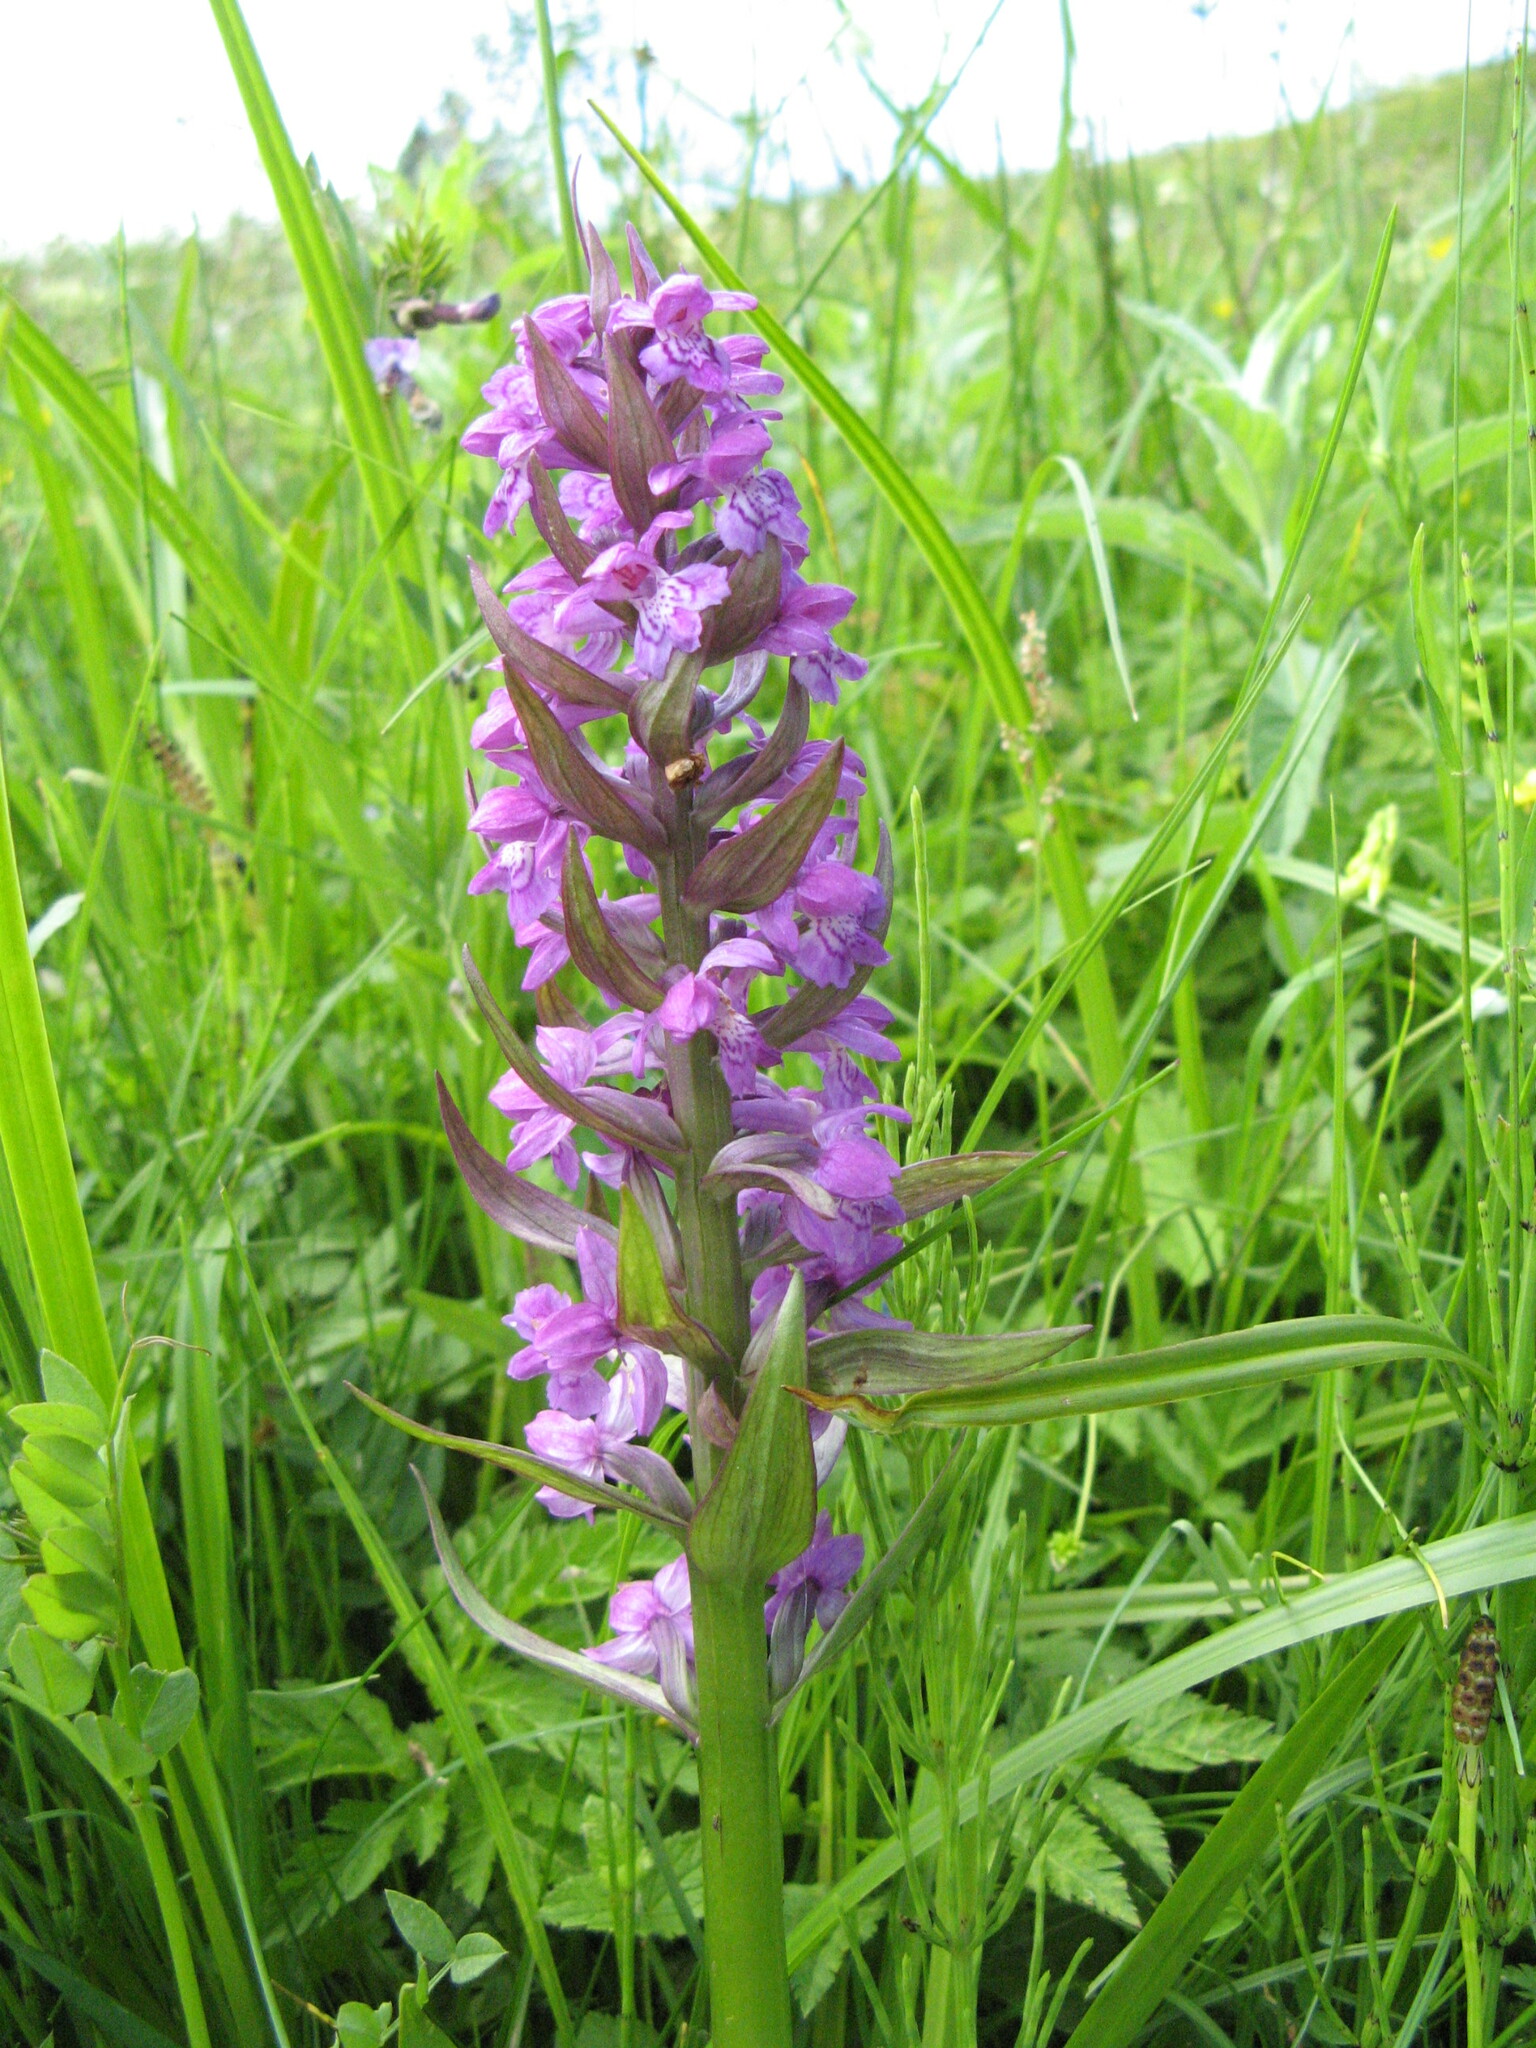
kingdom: Plantae
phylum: Tracheophyta
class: Liliopsida
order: Asparagales
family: Orchidaceae
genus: Dactylorhiza
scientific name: Dactylorhiza majalis
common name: Marsh orchid
